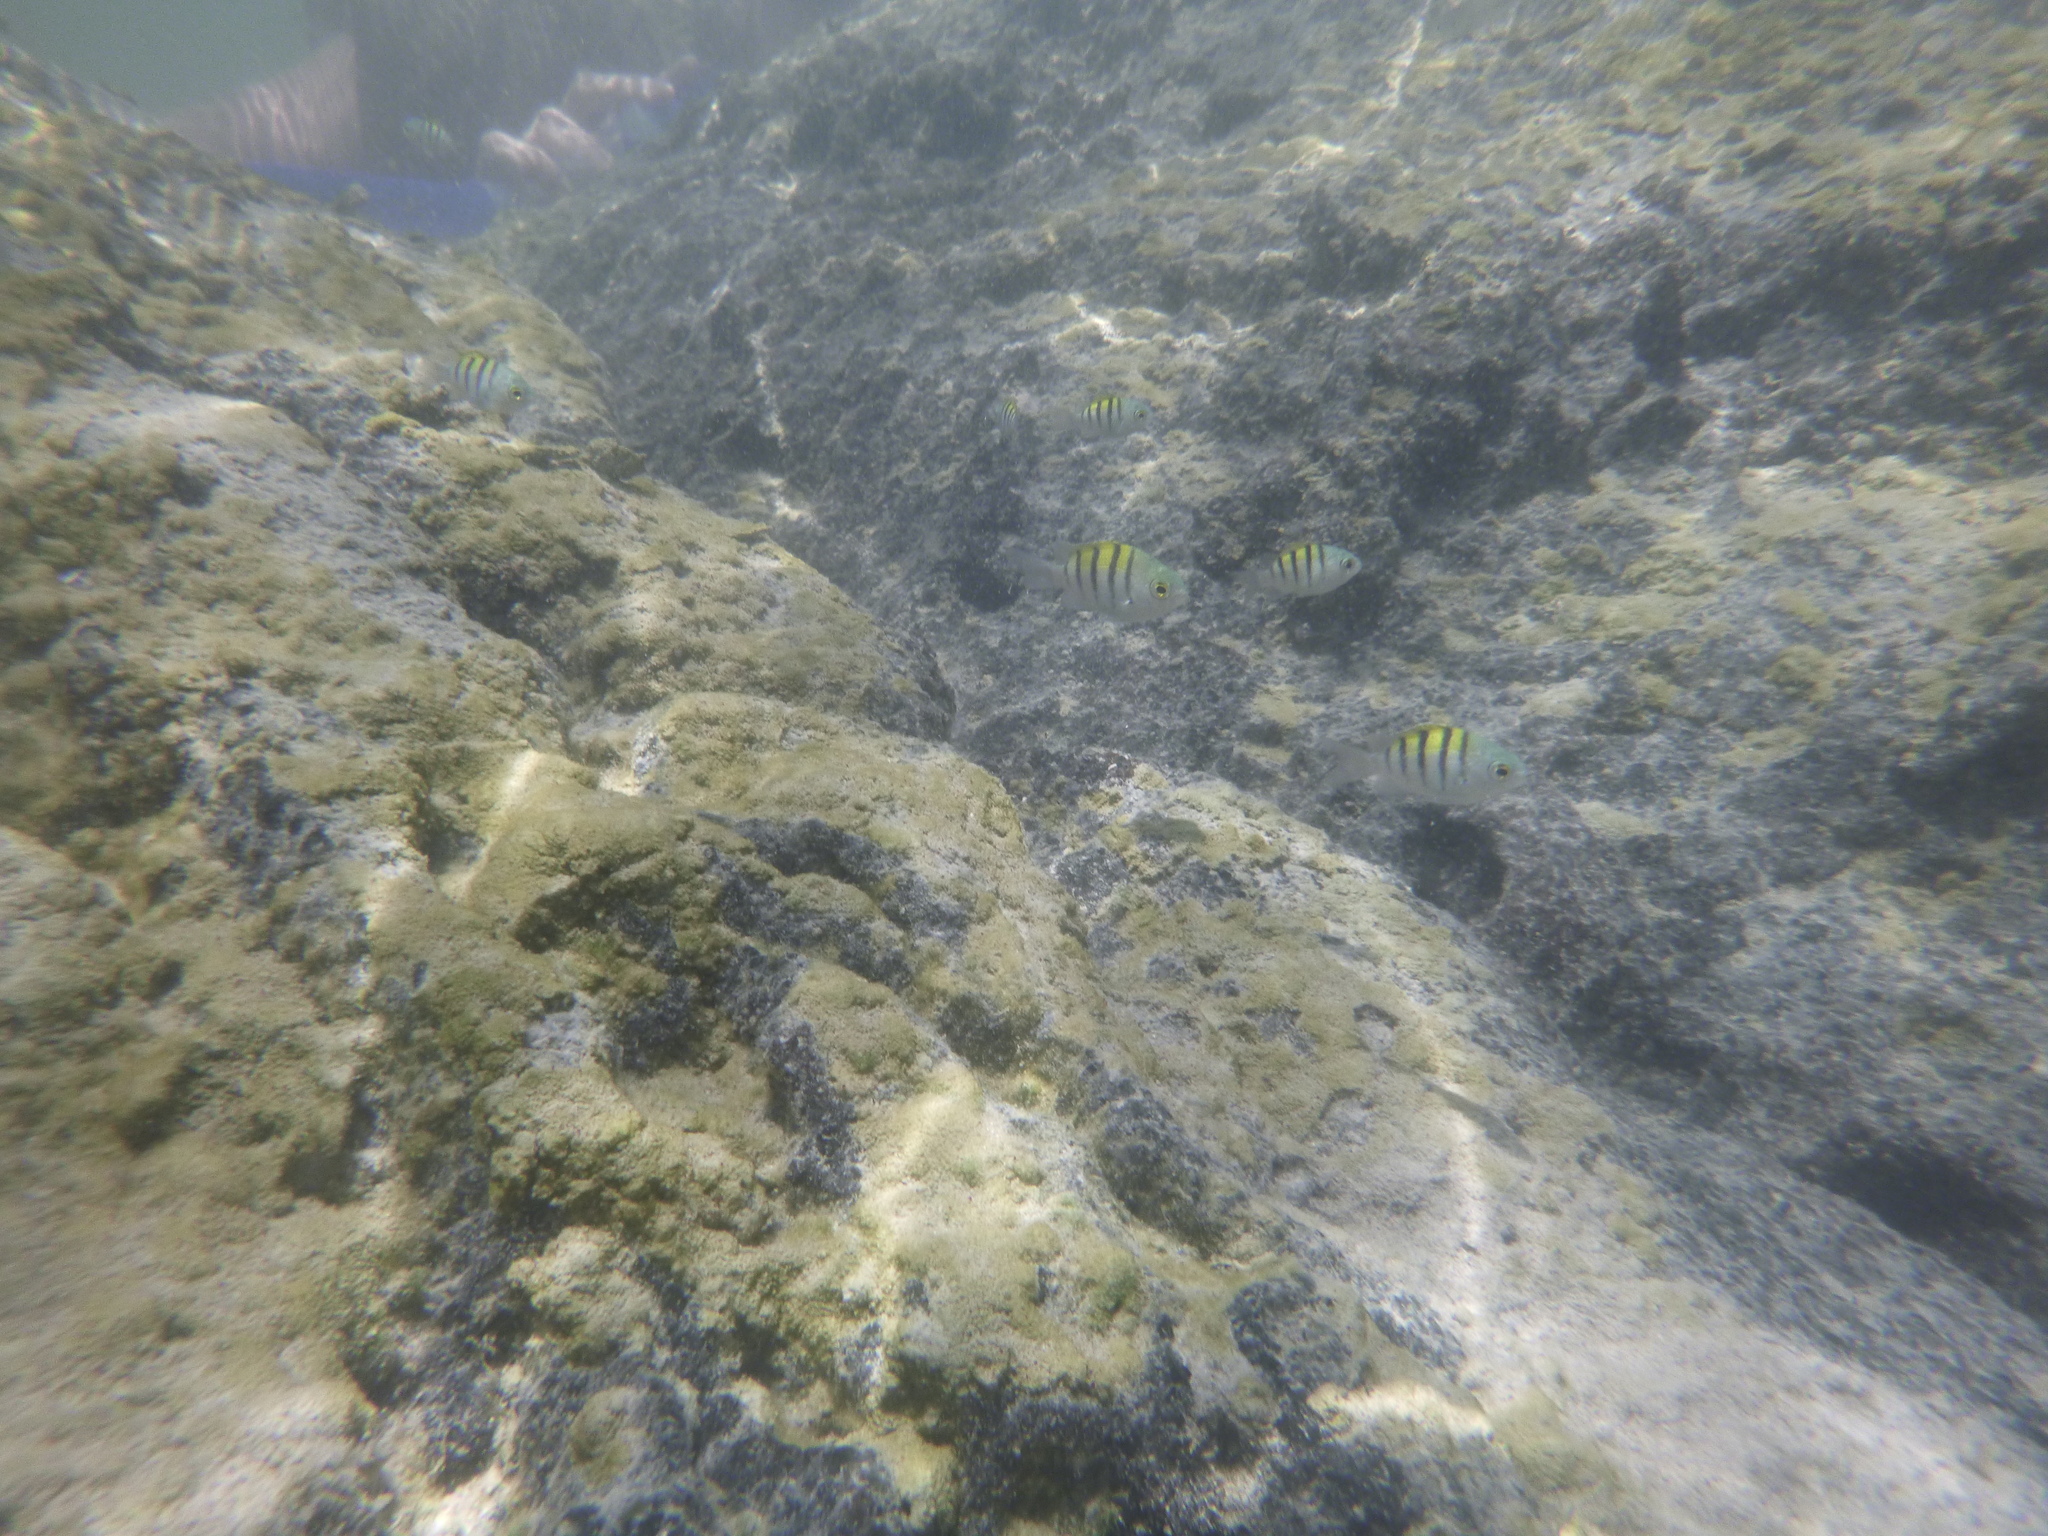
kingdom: Animalia
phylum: Chordata
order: Perciformes
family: Pomacentridae
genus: Abudefduf
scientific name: Abudefduf troschelii
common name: Panamic sergeant major
